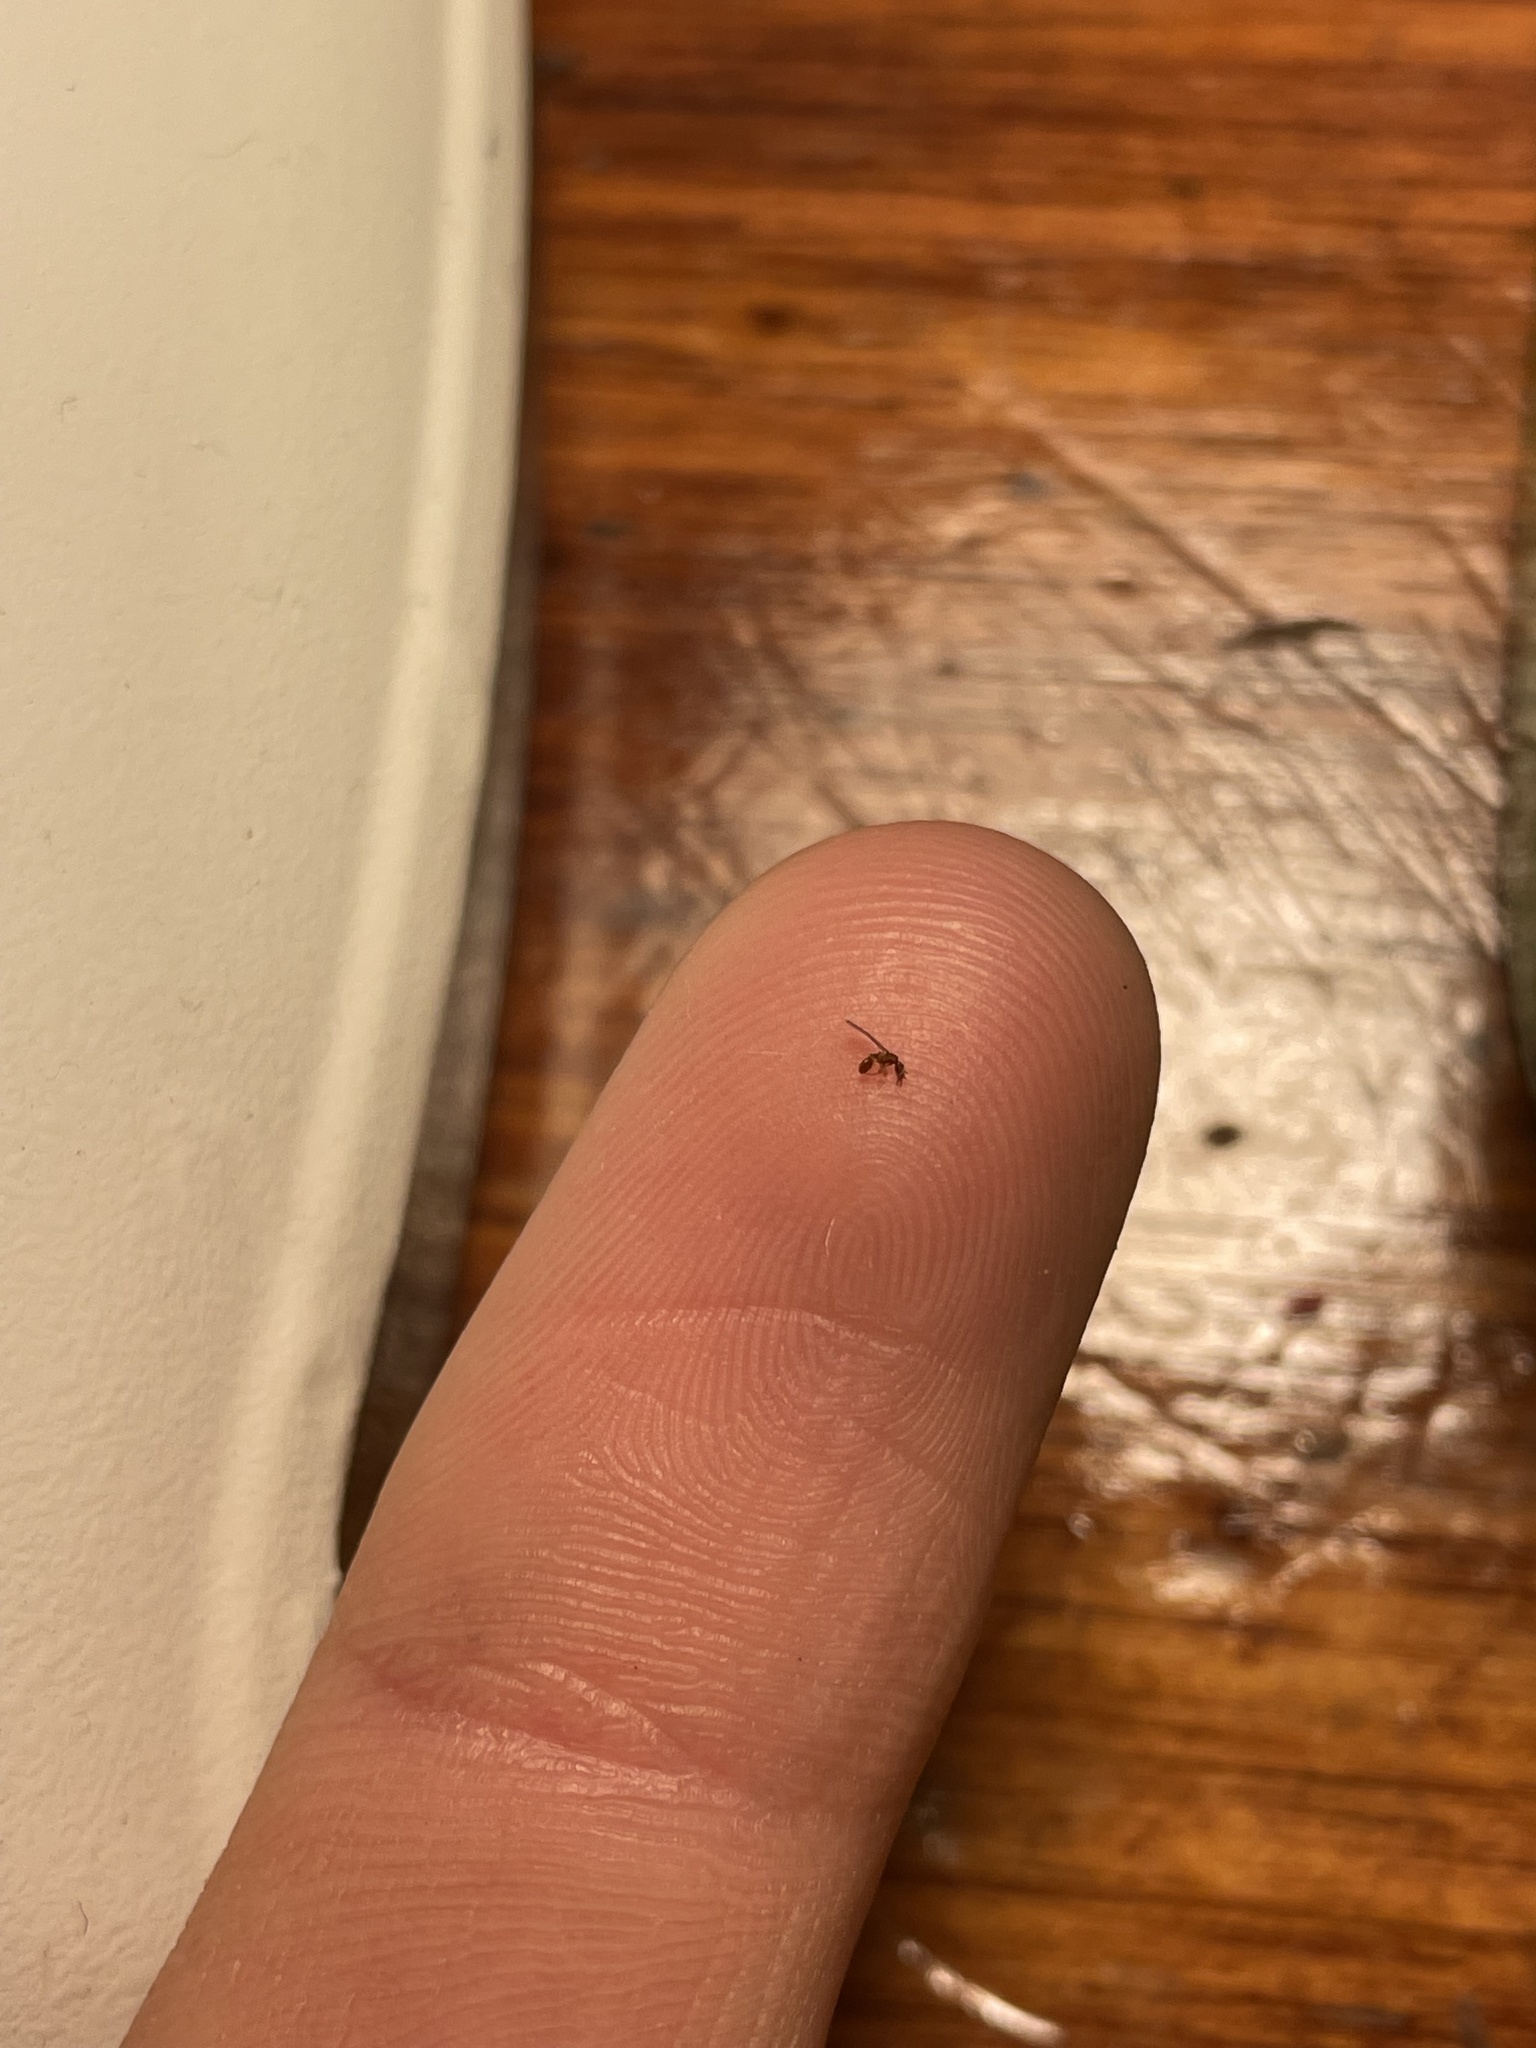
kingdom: Animalia
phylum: Arthropoda
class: Insecta
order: Hymenoptera
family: Formicidae
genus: Strumigenys
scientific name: Strumigenys silvestrii
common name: Ant
